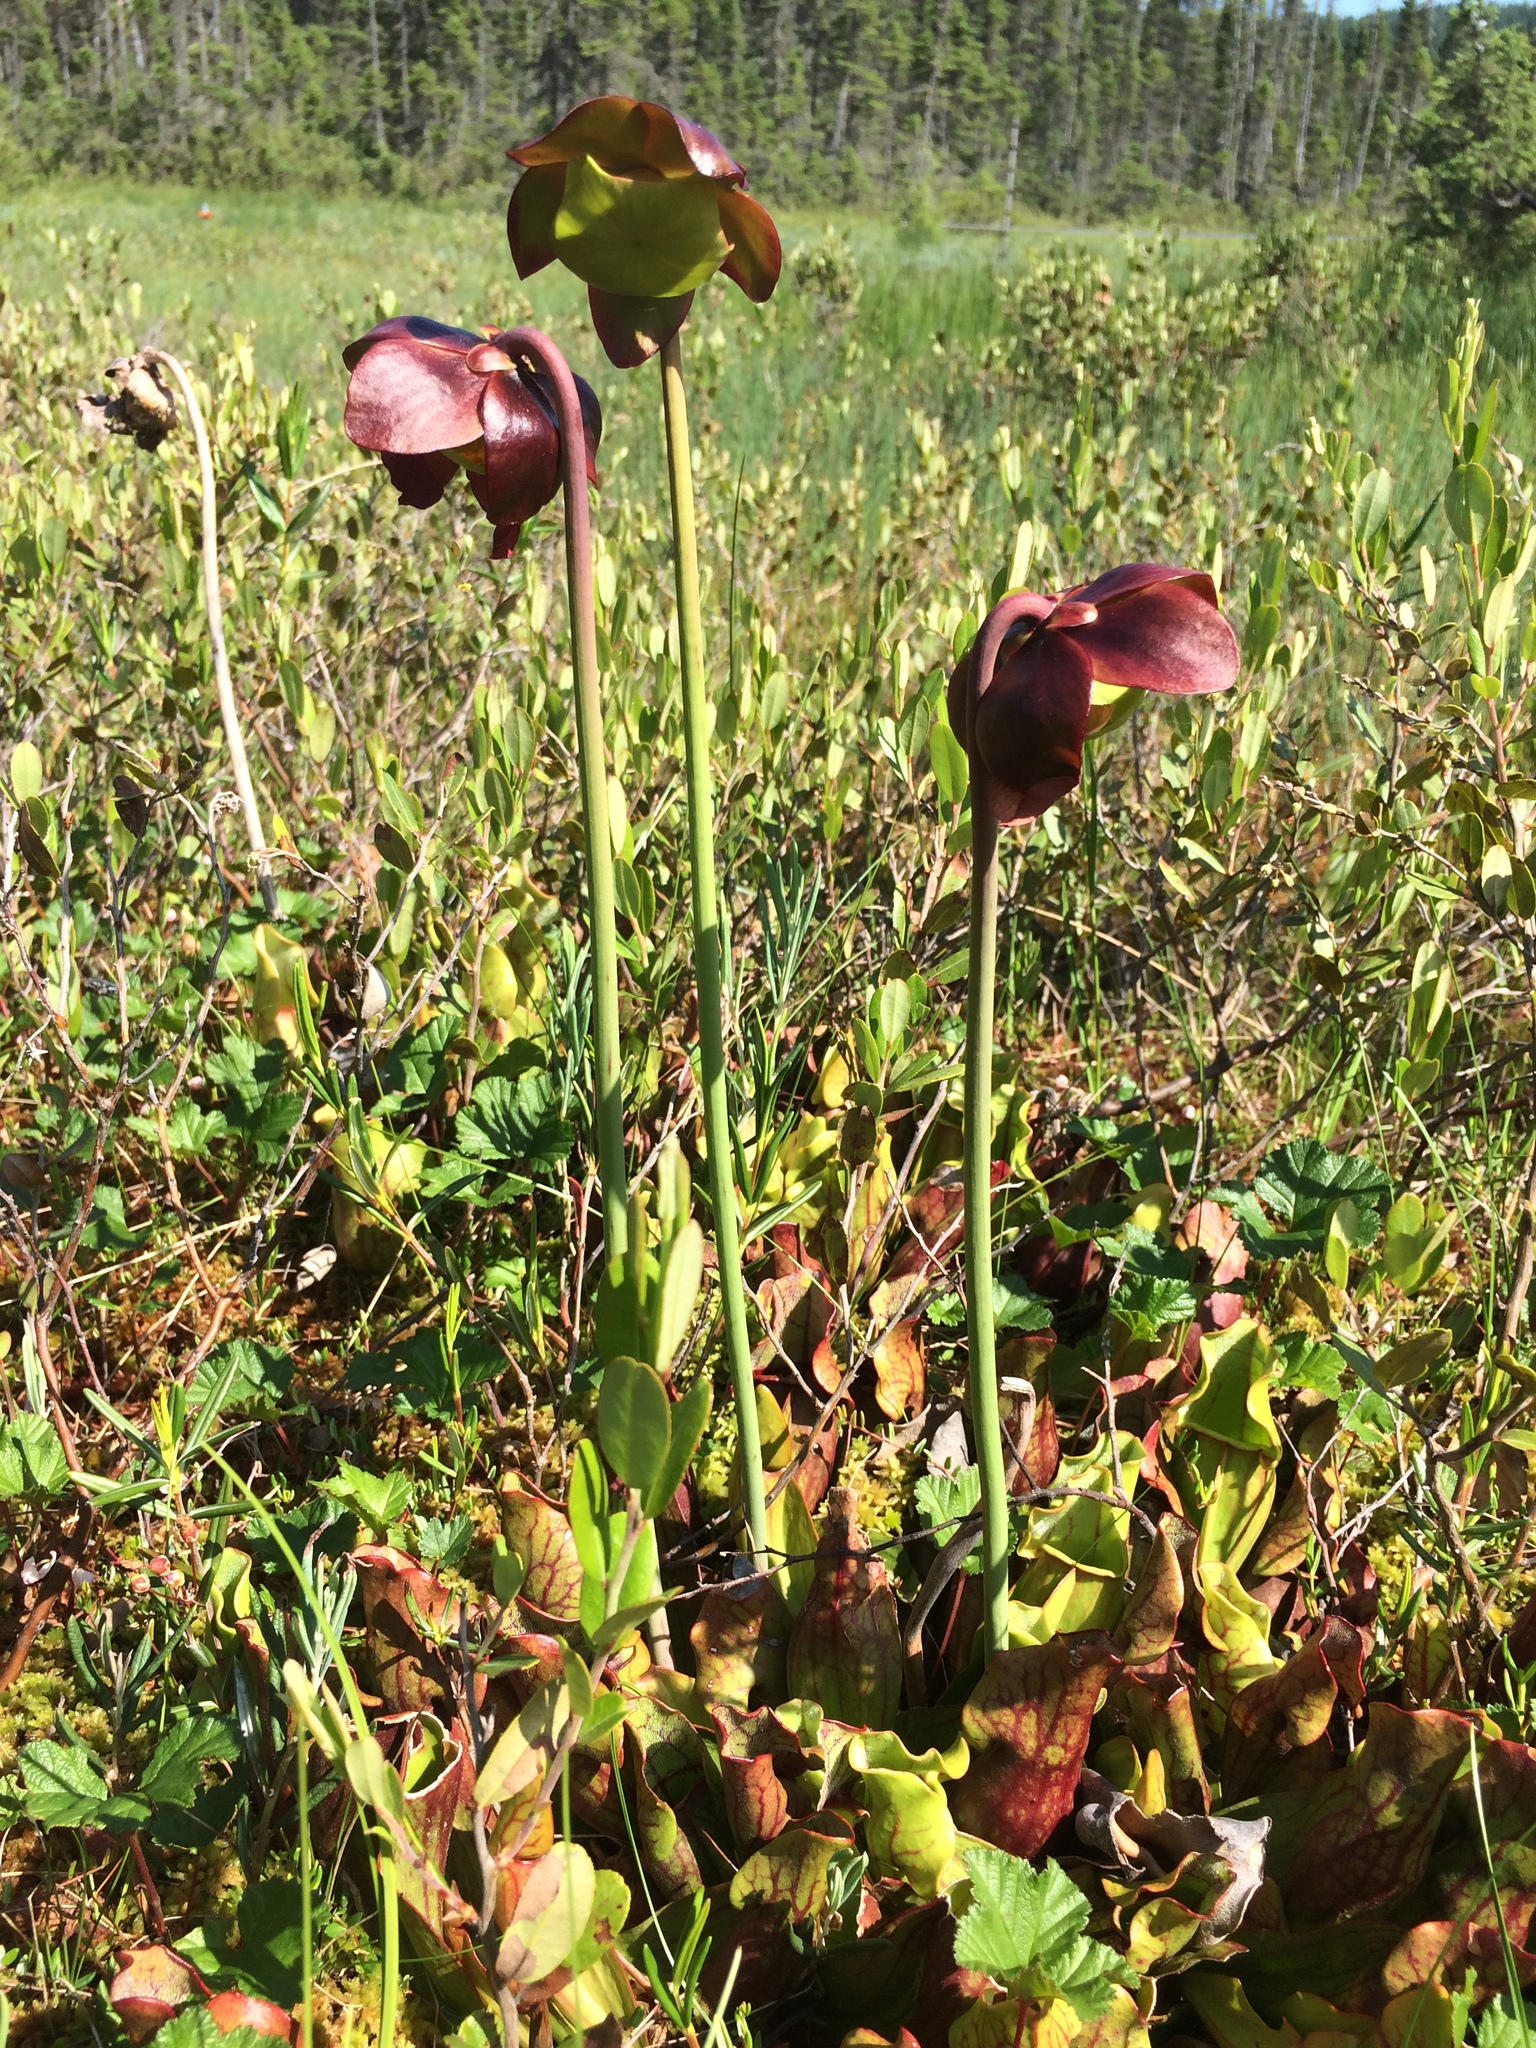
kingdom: Plantae
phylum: Tracheophyta
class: Magnoliopsida
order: Ericales
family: Sarraceniaceae
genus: Sarracenia
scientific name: Sarracenia purpurea
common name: Pitcherplant
